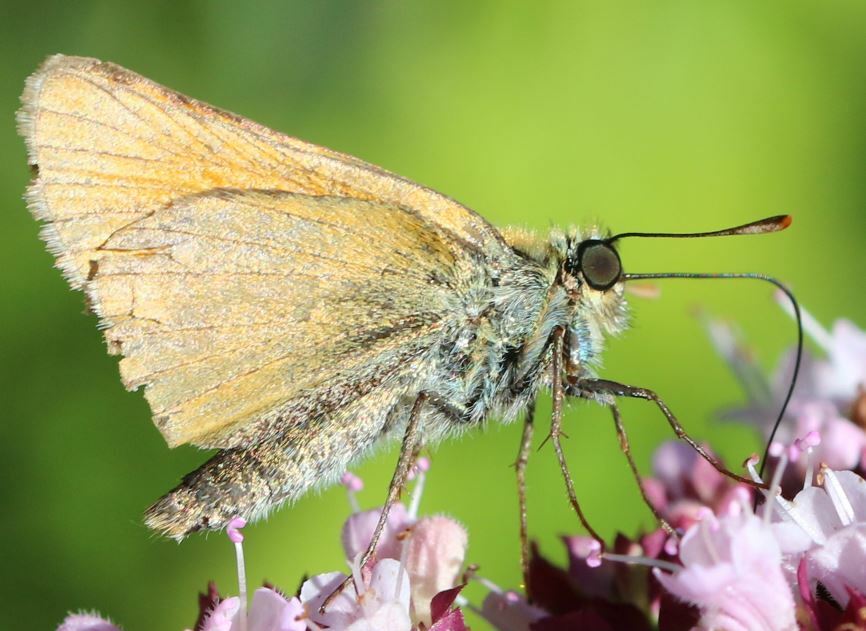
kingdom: Animalia
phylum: Arthropoda
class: Insecta
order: Lepidoptera
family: Hesperiidae
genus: Thymelicus
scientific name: Thymelicus sylvestris
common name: Small skipper
